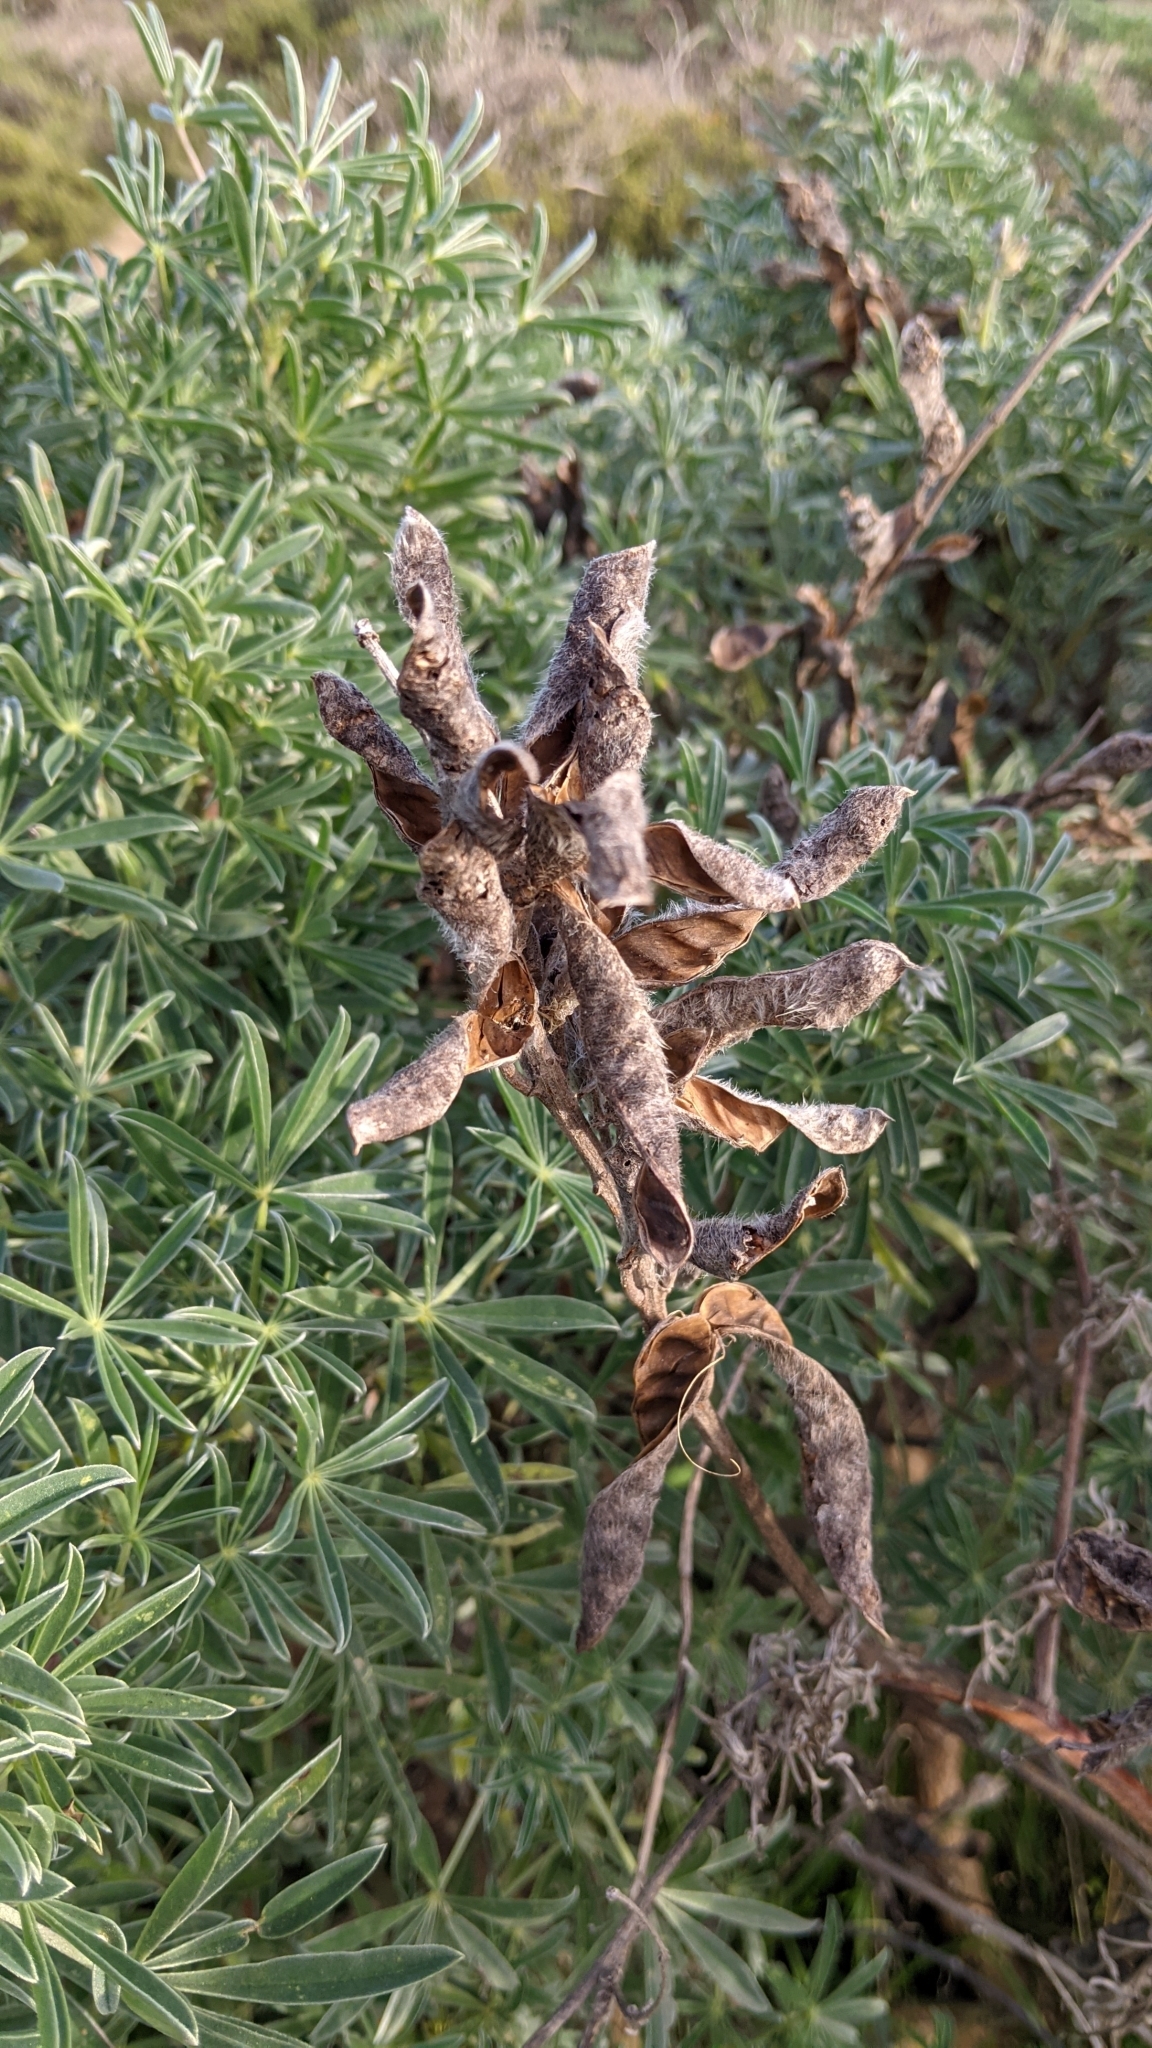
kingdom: Plantae
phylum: Tracheophyta
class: Magnoliopsida
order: Fabales
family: Fabaceae
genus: Lupinus
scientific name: Lupinus arboreus
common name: Yellow bush lupine
